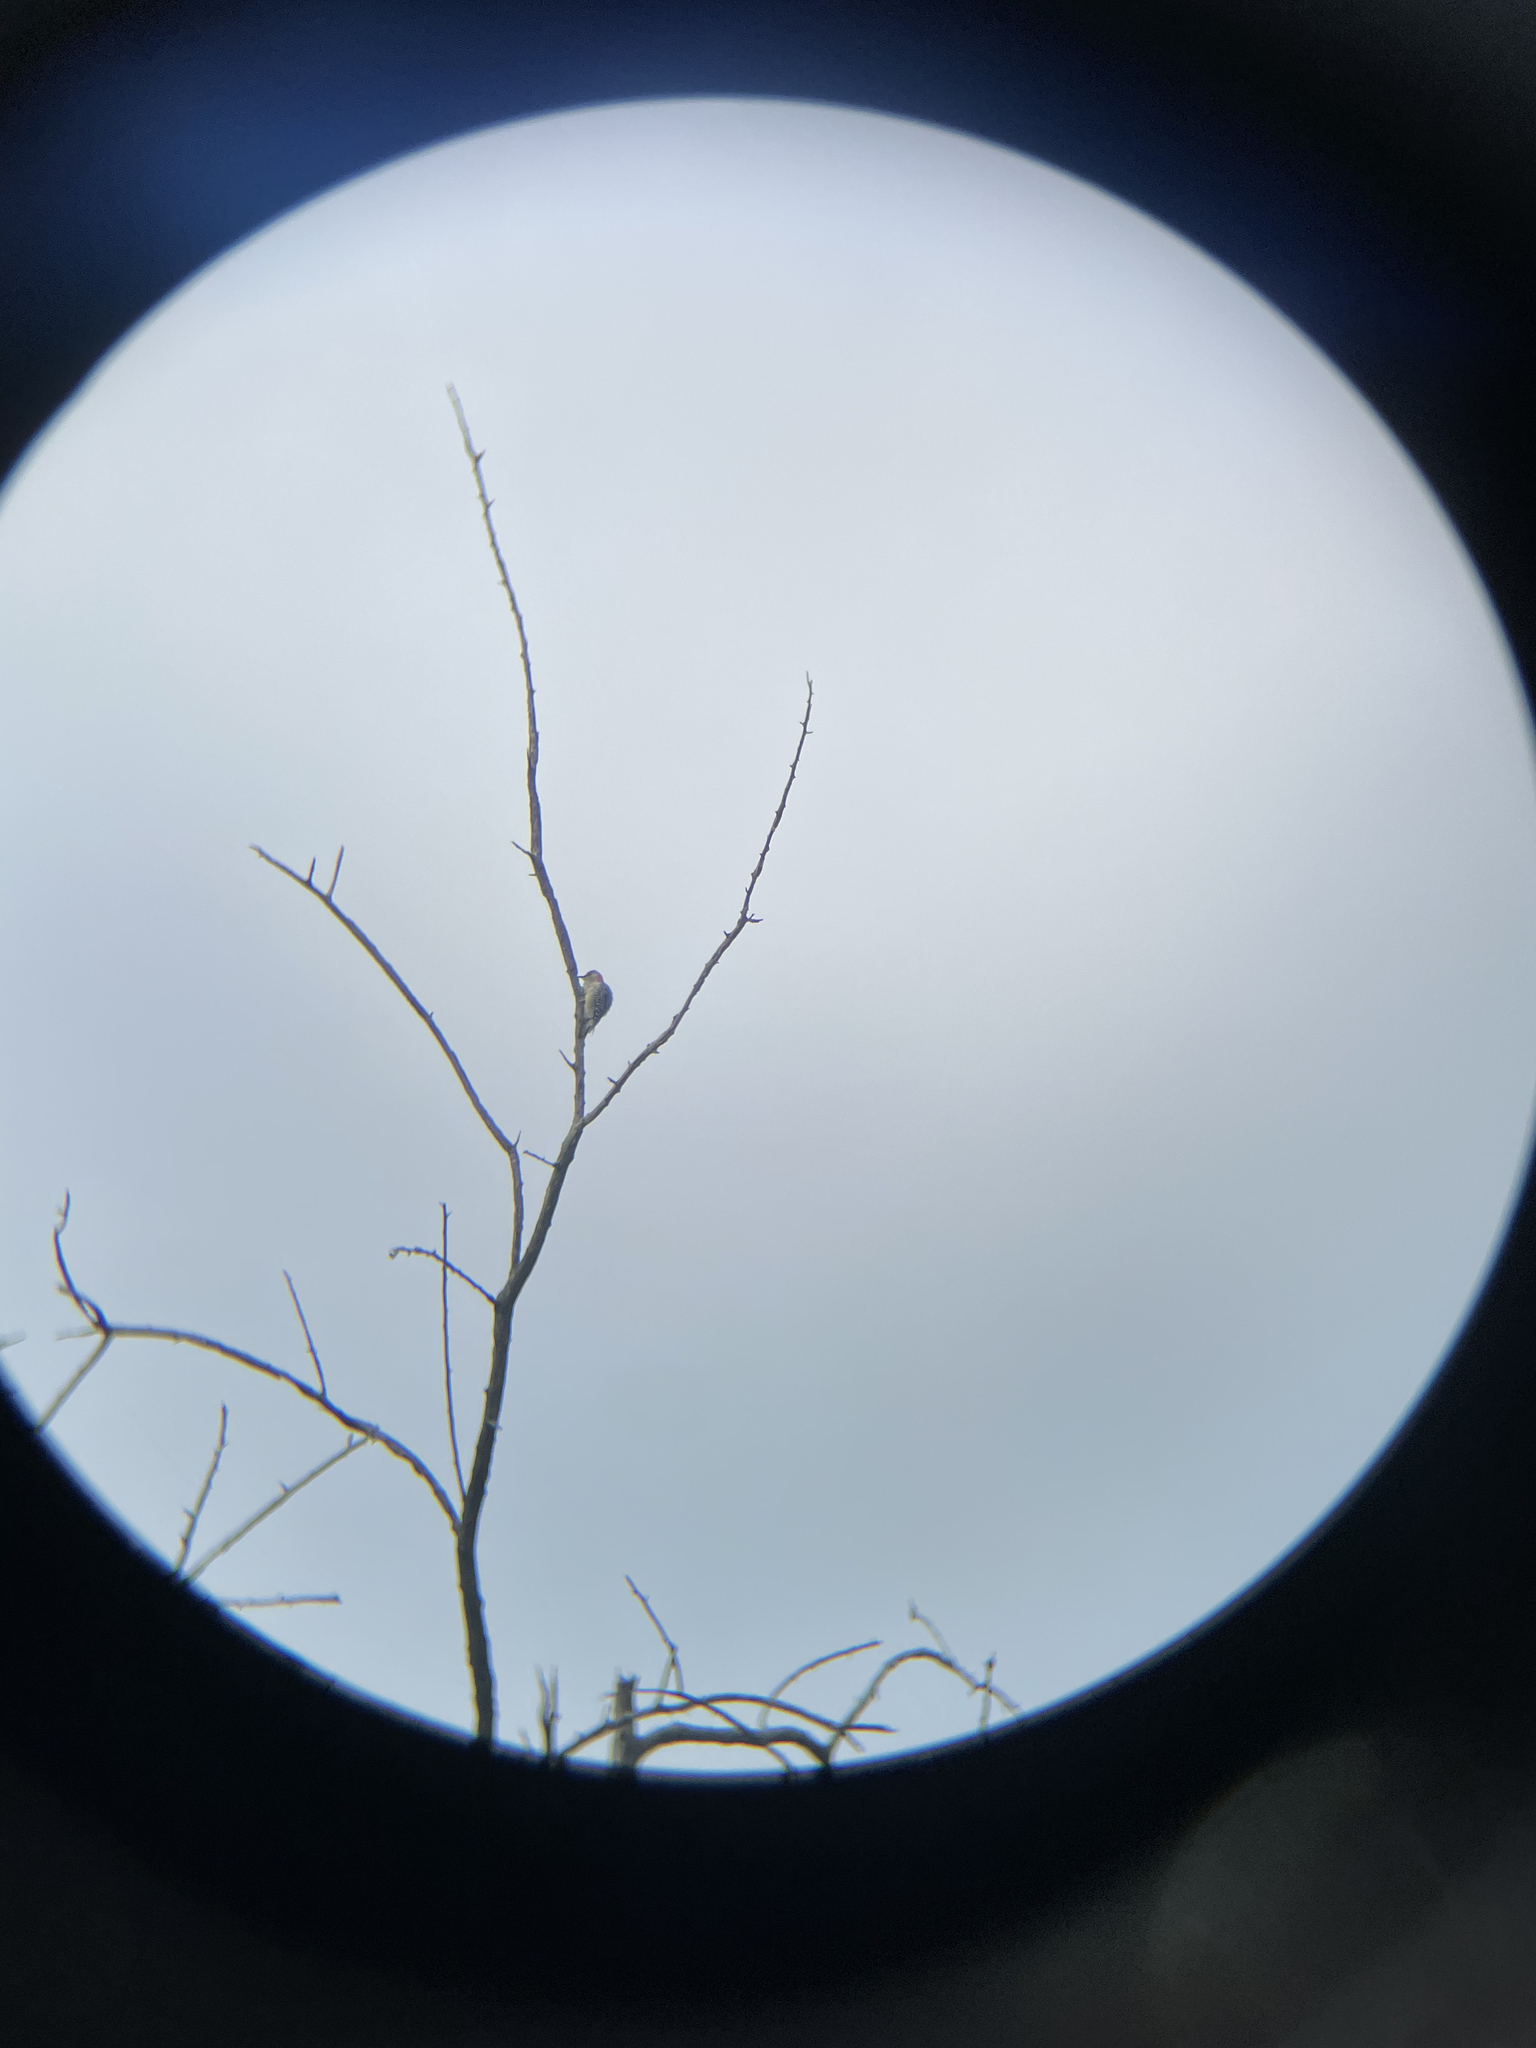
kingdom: Animalia
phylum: Chordata
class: Aves
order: Piciformes
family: Picidae
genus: Melanerpes
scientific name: Melanerpes carolinus
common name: Red-bellied woodpecker
